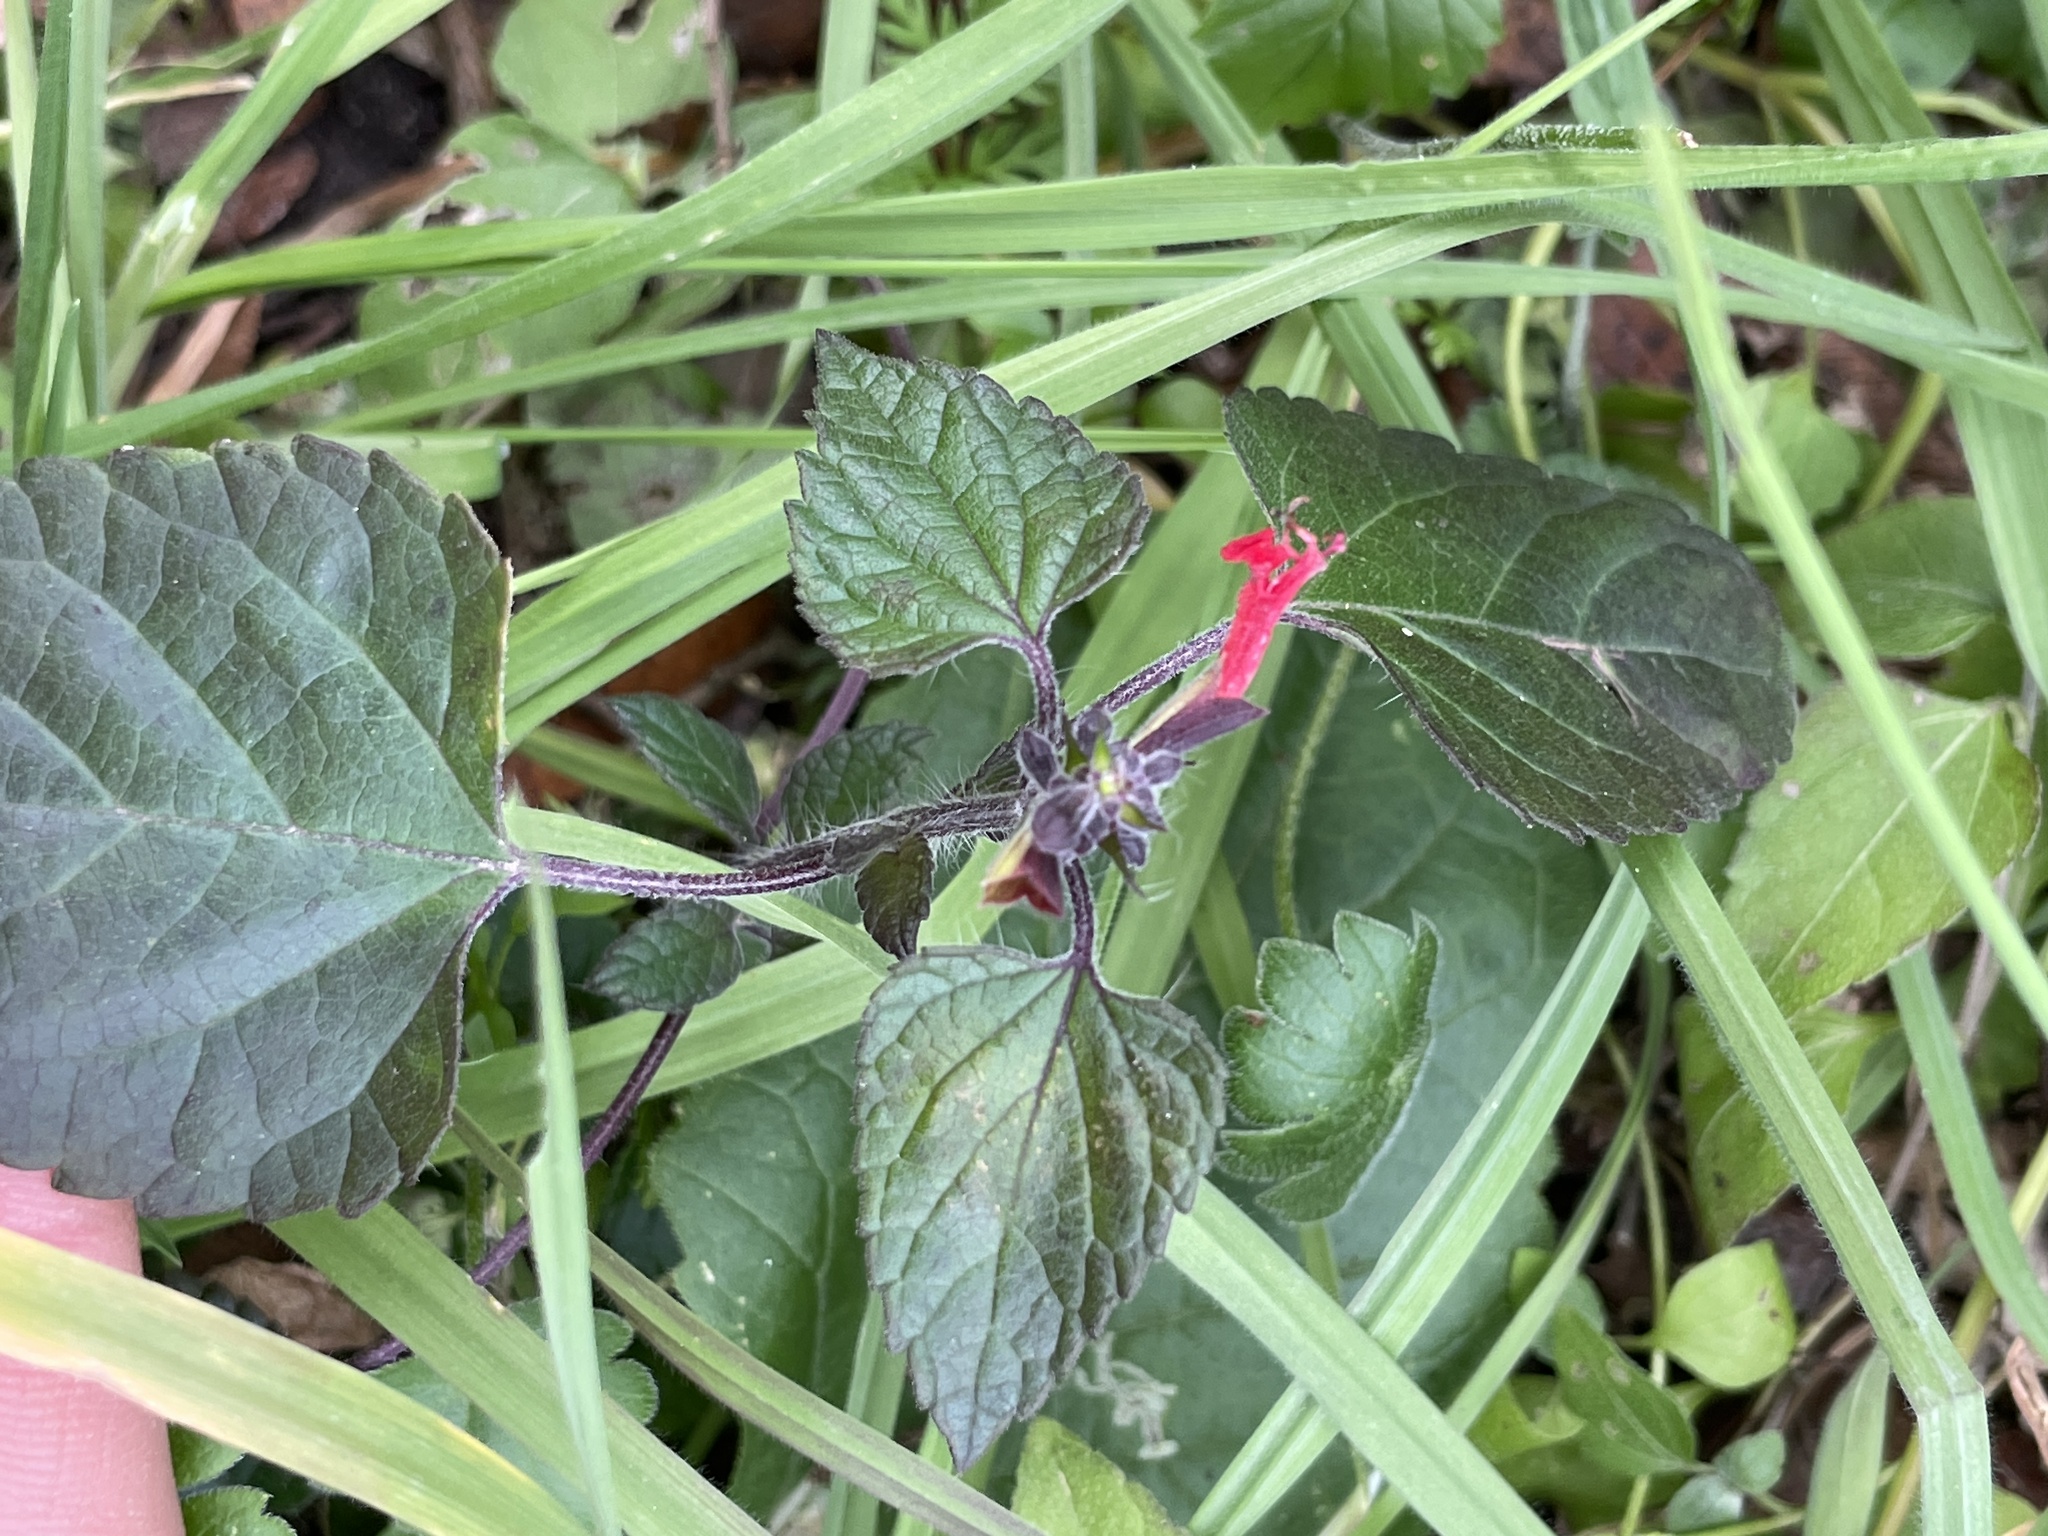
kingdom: Plantae
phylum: Tracheophyta
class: Magnoliopsida
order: Lamiales
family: Lamiaceae
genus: Salvia
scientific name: Salvia coccinea
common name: Blood sage
